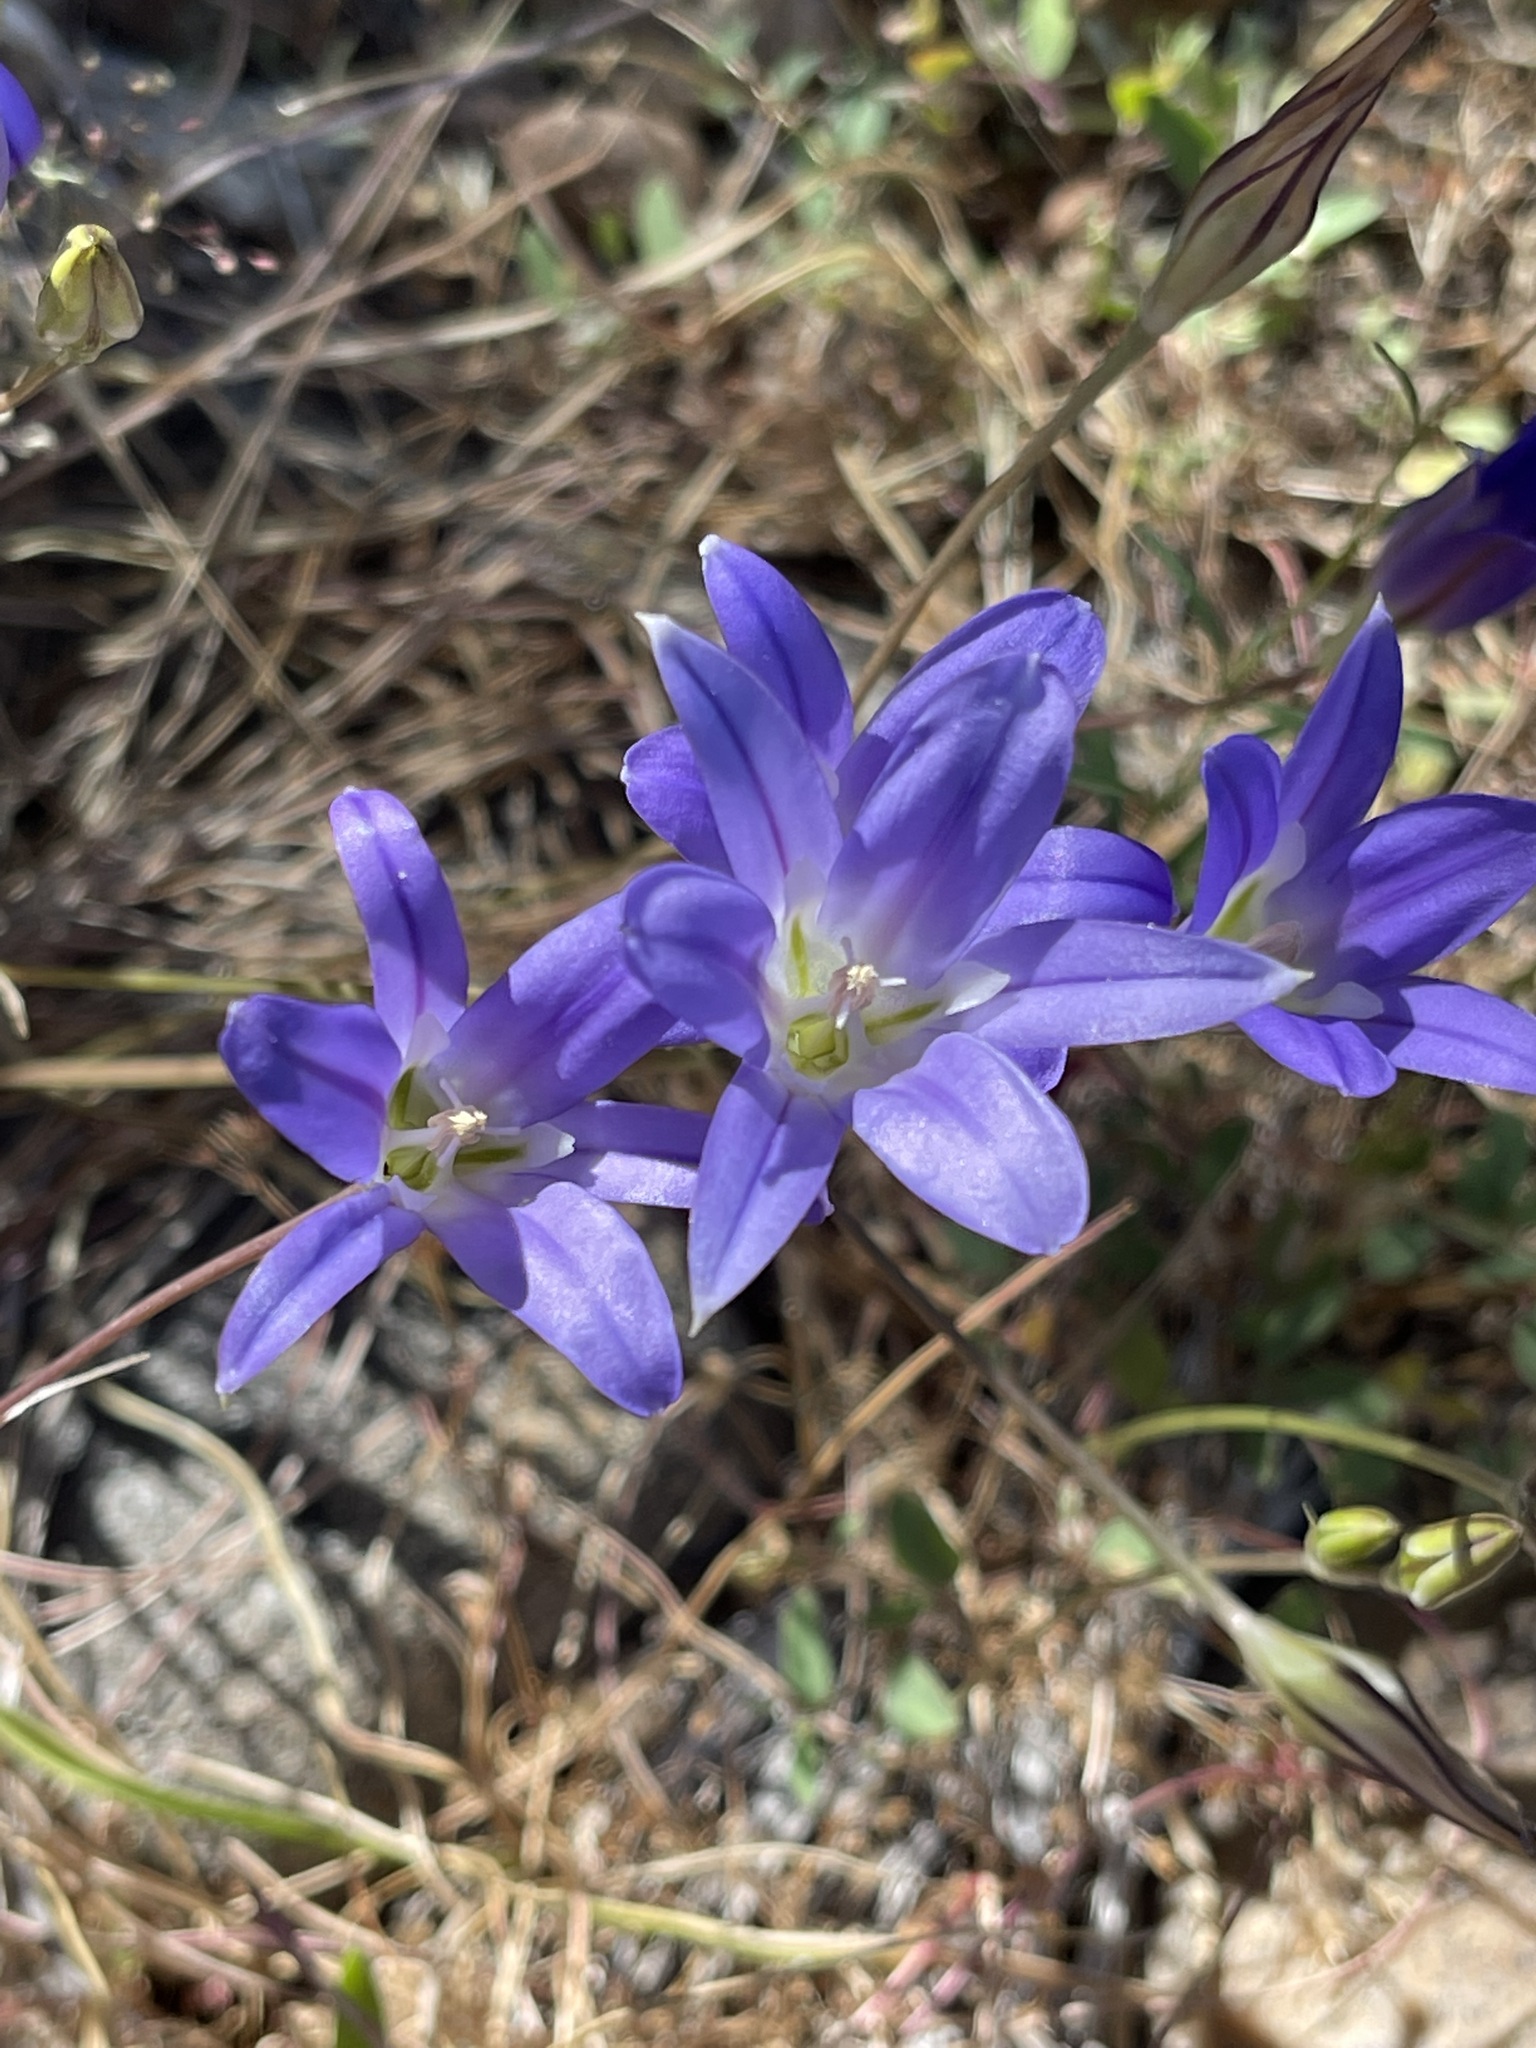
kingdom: Plantae
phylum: Tracheophyta
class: Liliopsida
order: Asparagales
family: Asparagaceae
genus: Brodiaea
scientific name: Brodiaea elegans
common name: Elegant cluster-lily
